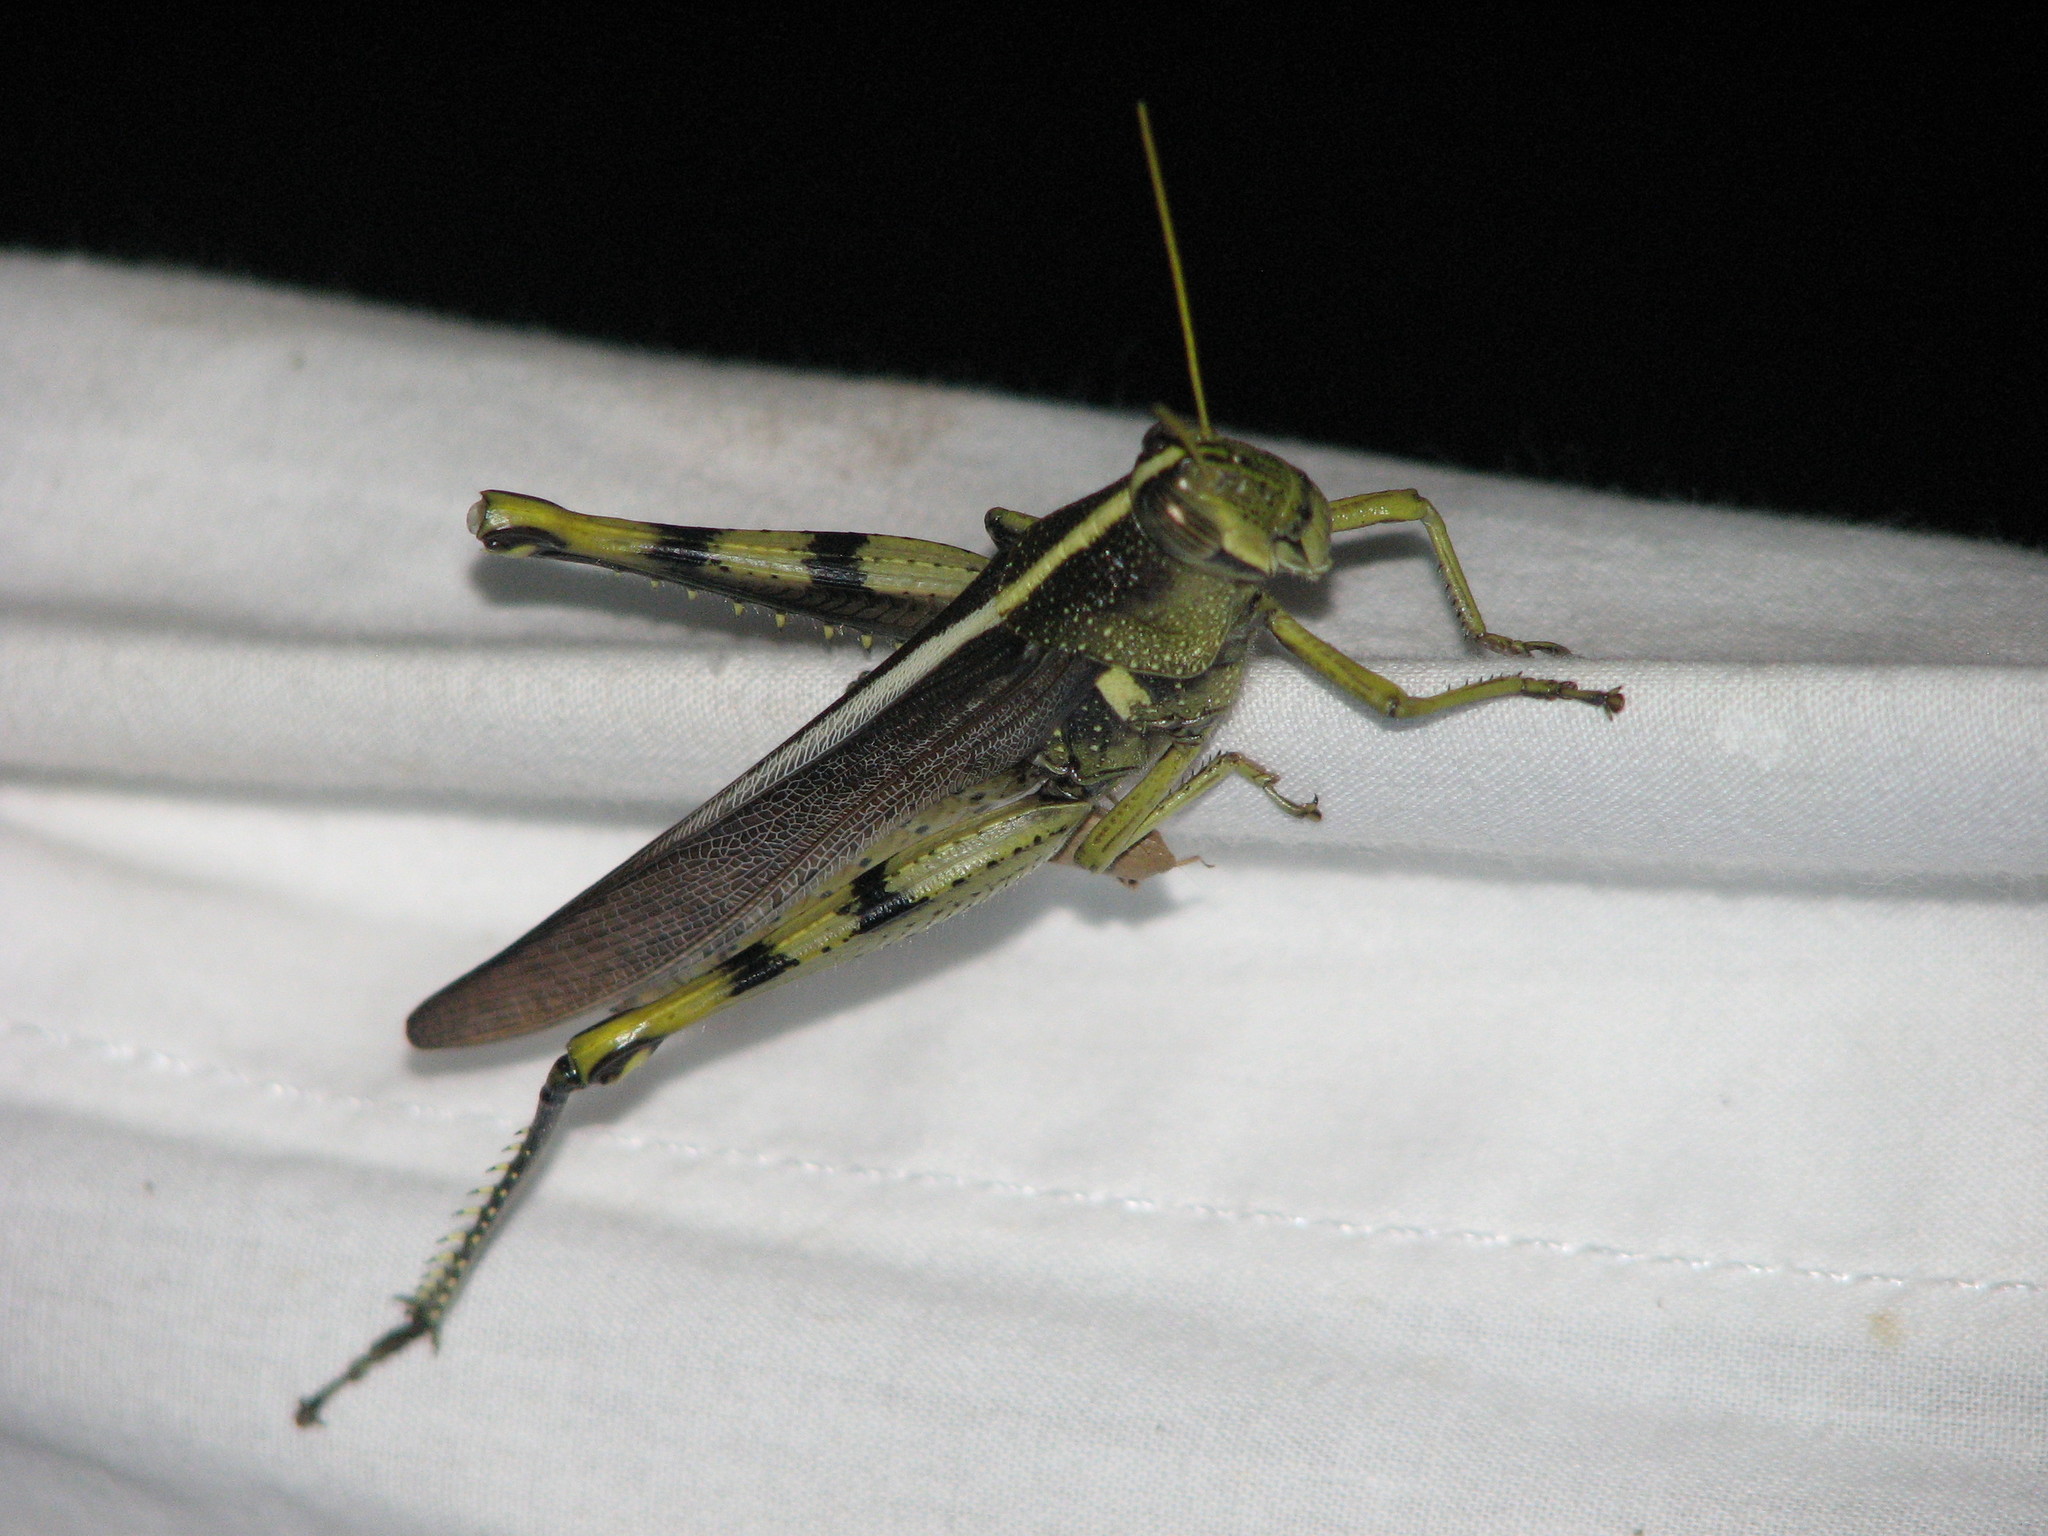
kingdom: Animalia
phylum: Arthropoda
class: Insecta
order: Orthoptera
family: Acrididae
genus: Schistocerca
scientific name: Schistocerca obscura
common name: Obscure bird grasshopper
